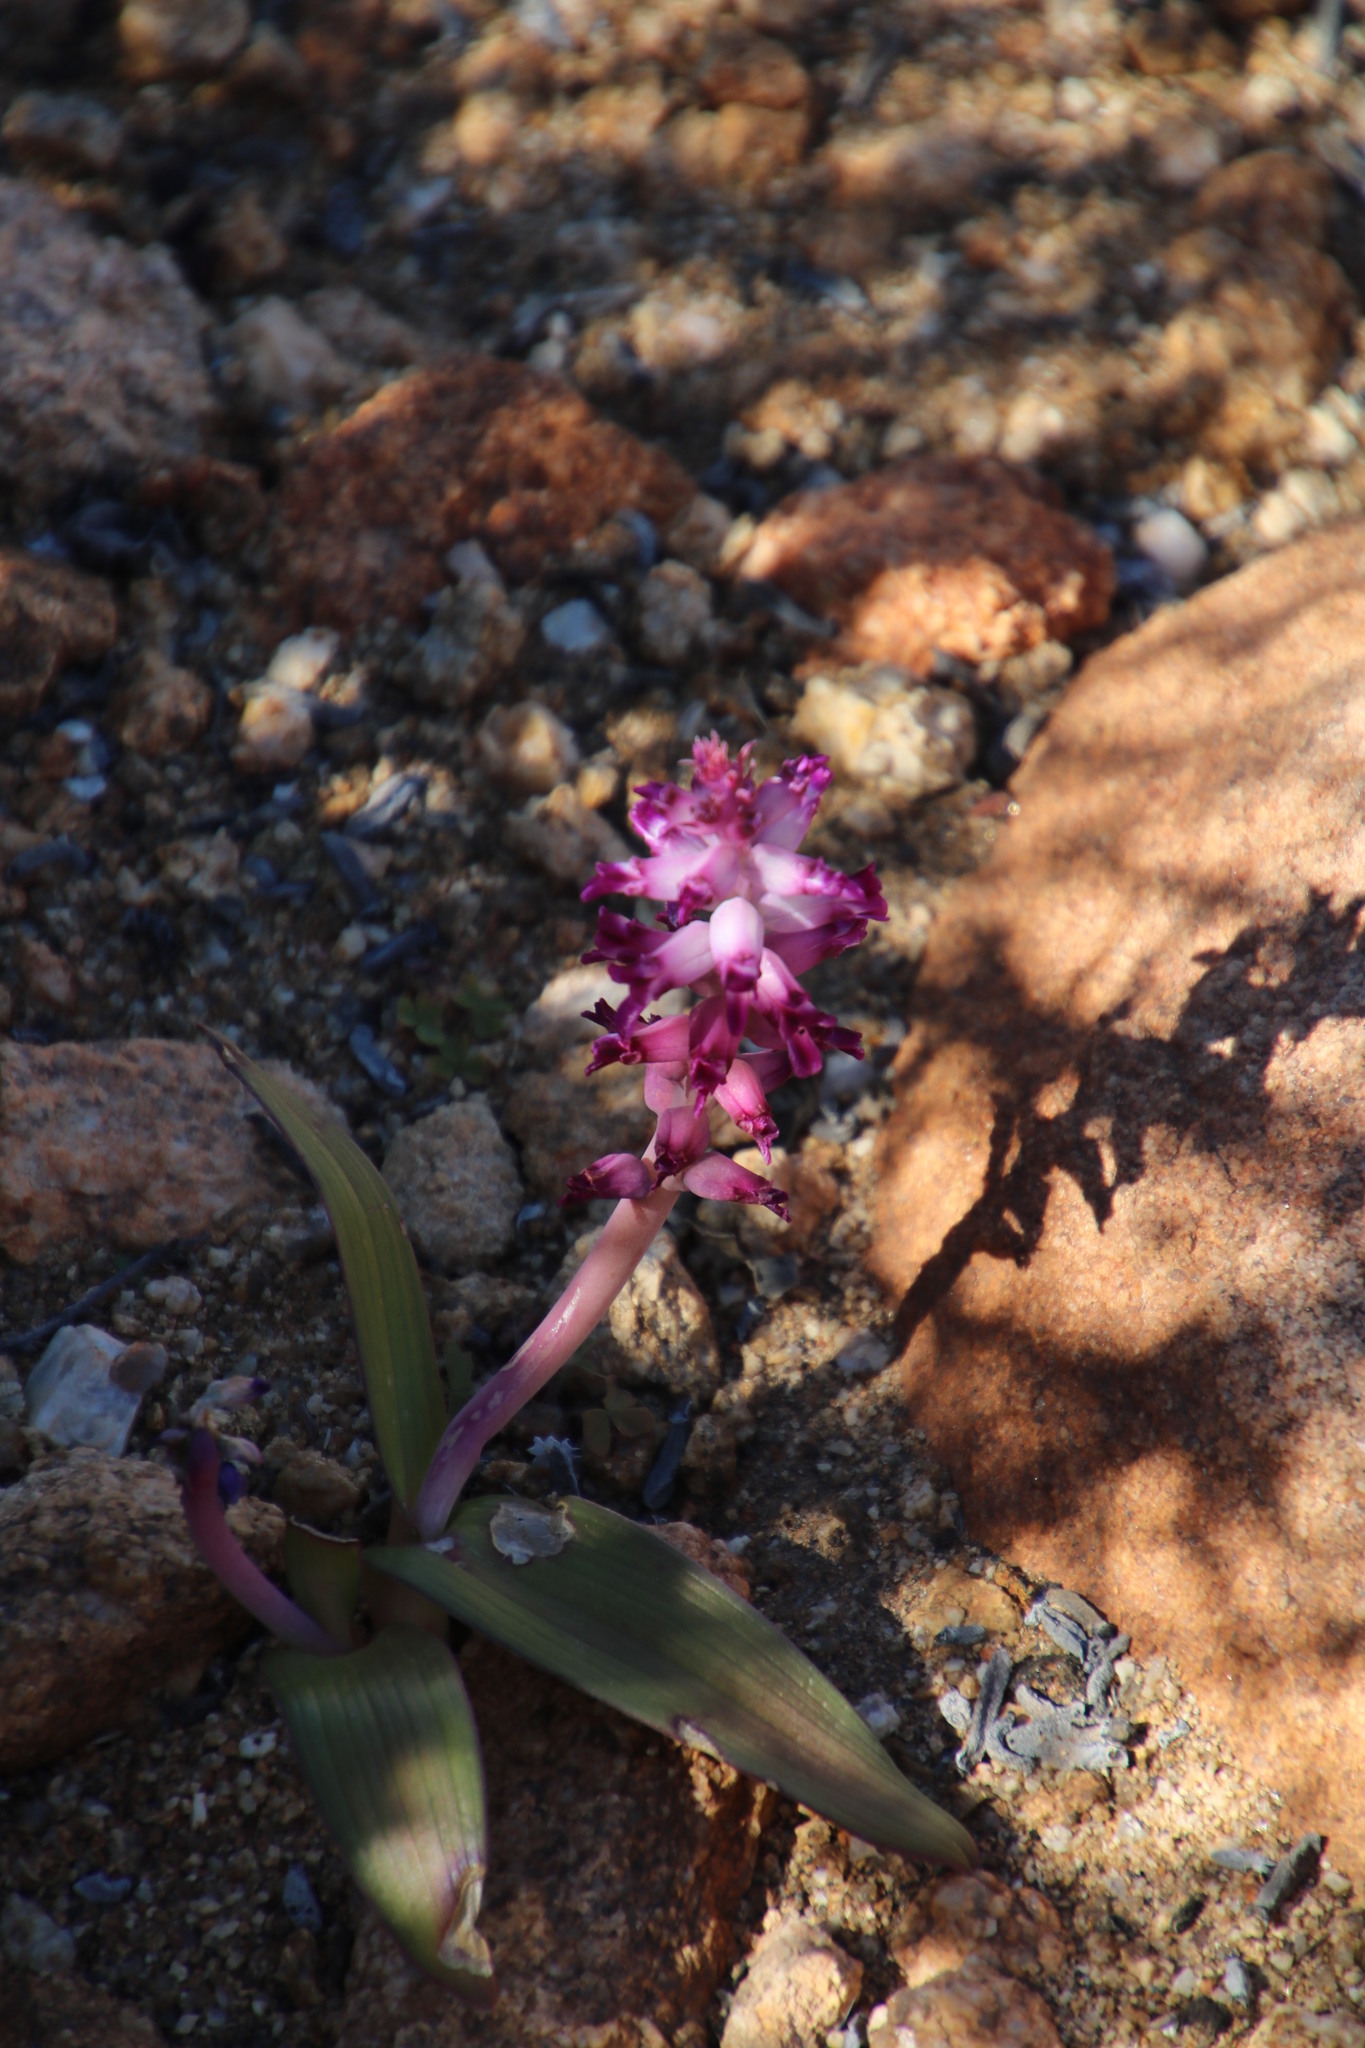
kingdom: Plantae
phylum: Tracheophyta
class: Liliopsida
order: Asparagales
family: Asparagaceae
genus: Lachenalia
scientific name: Lachenalia carnosa
